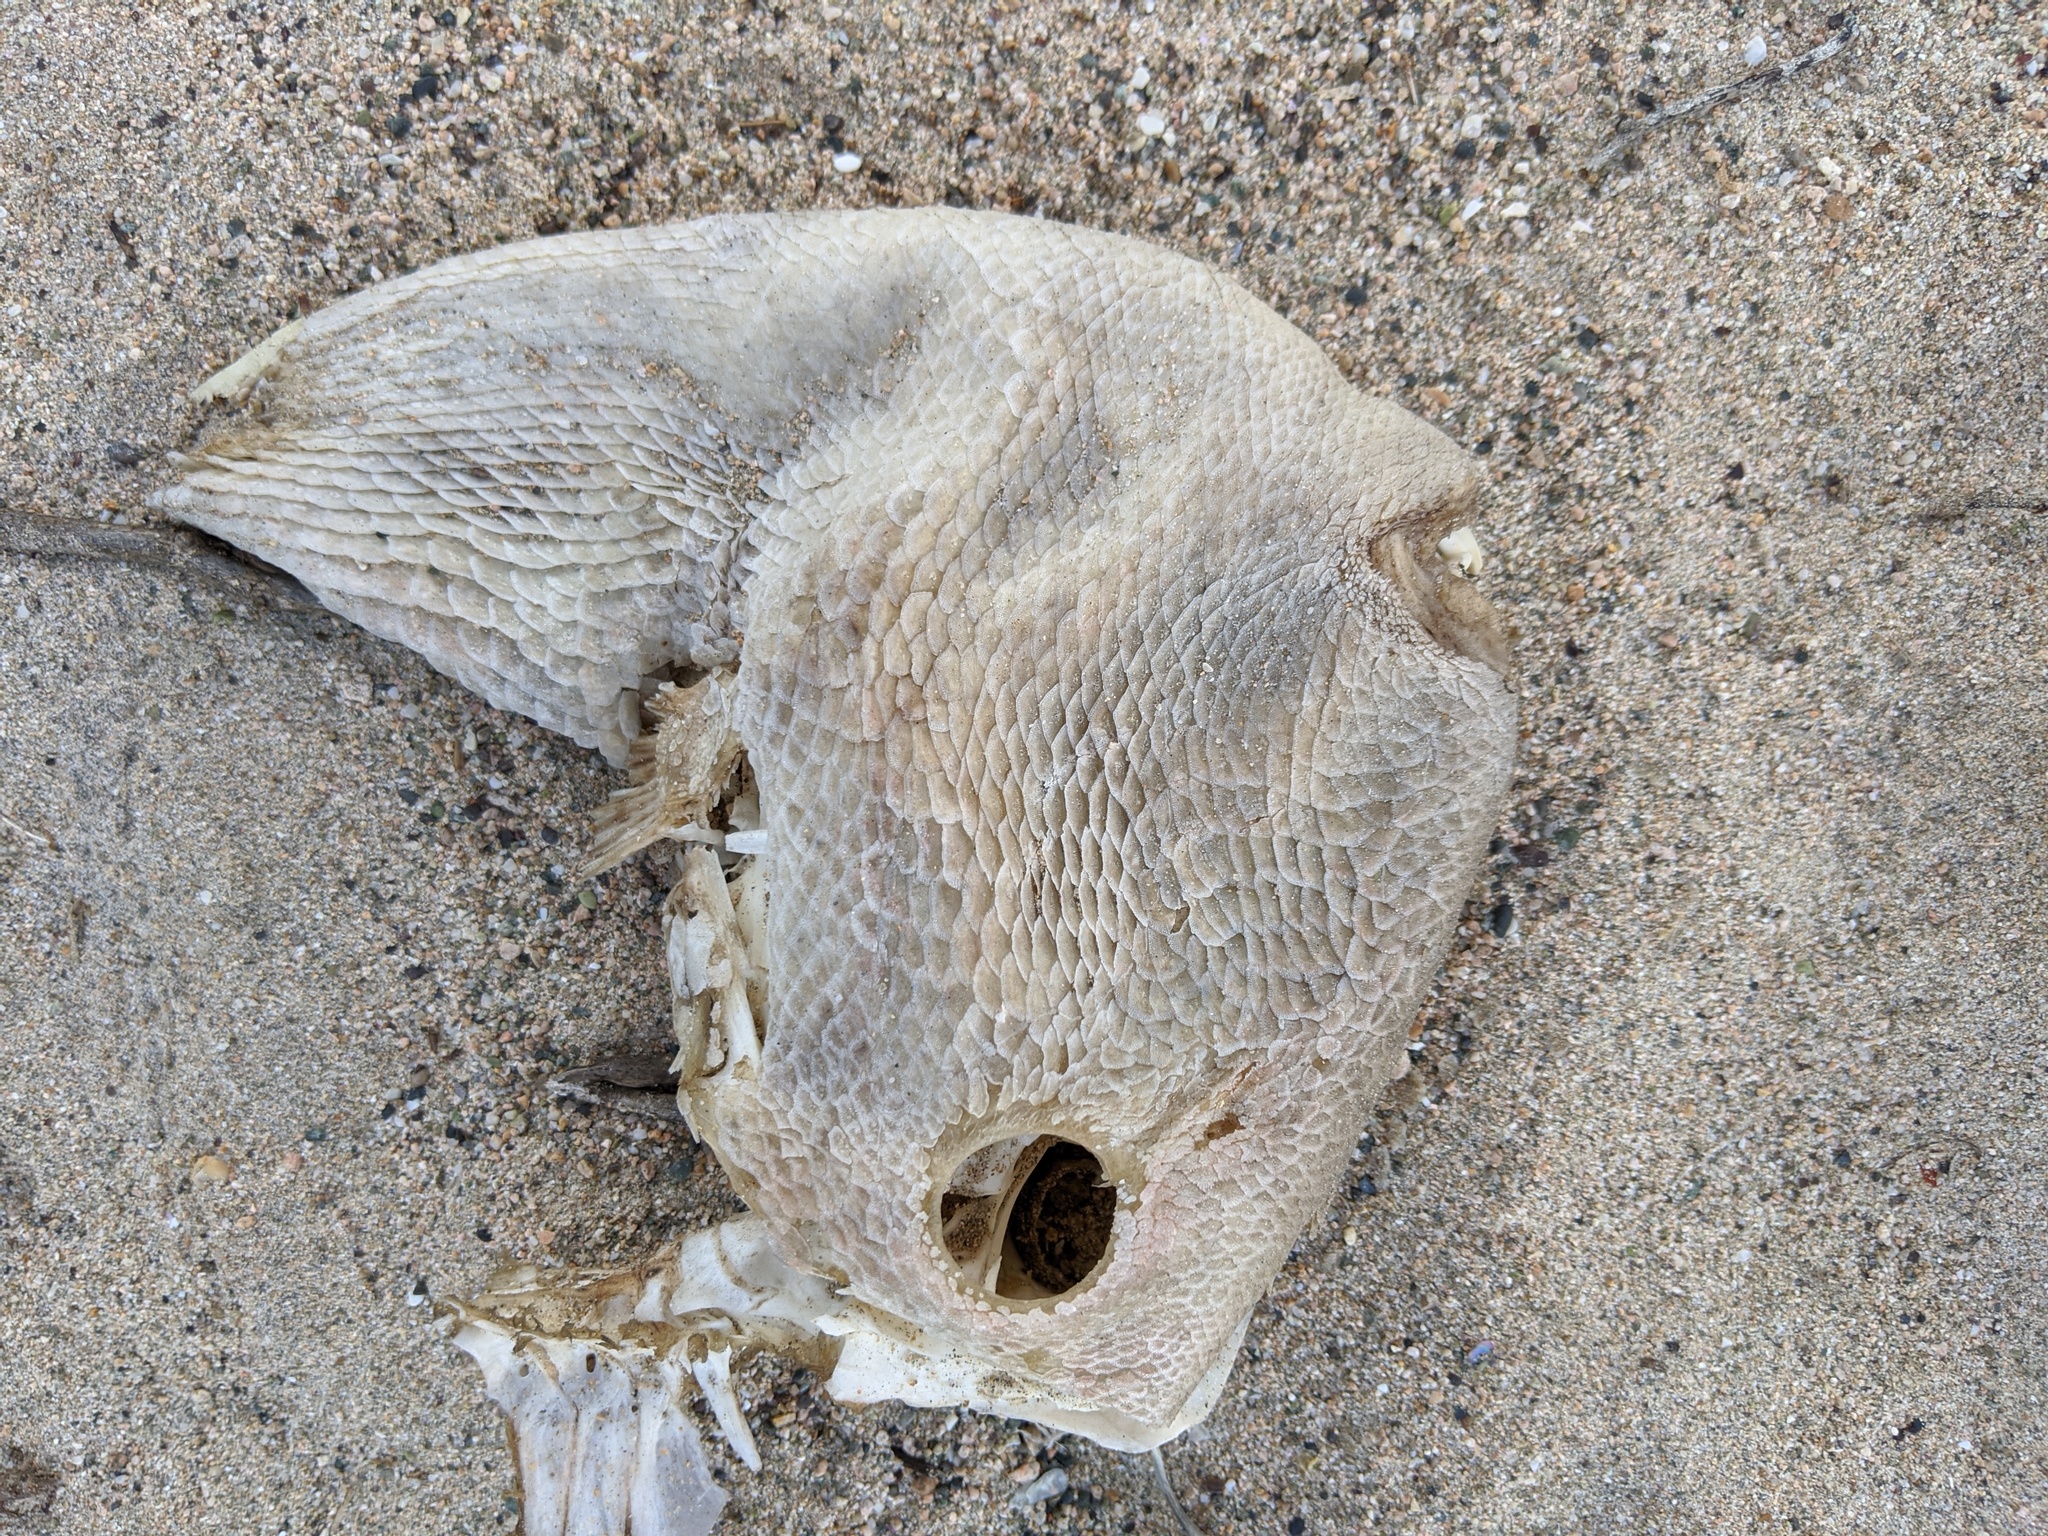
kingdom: Animalia
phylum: Chordata
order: Tetraodontiformes
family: Balistidae
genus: Balistes
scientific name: Balistes polylepis
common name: Finescale triggerfish
